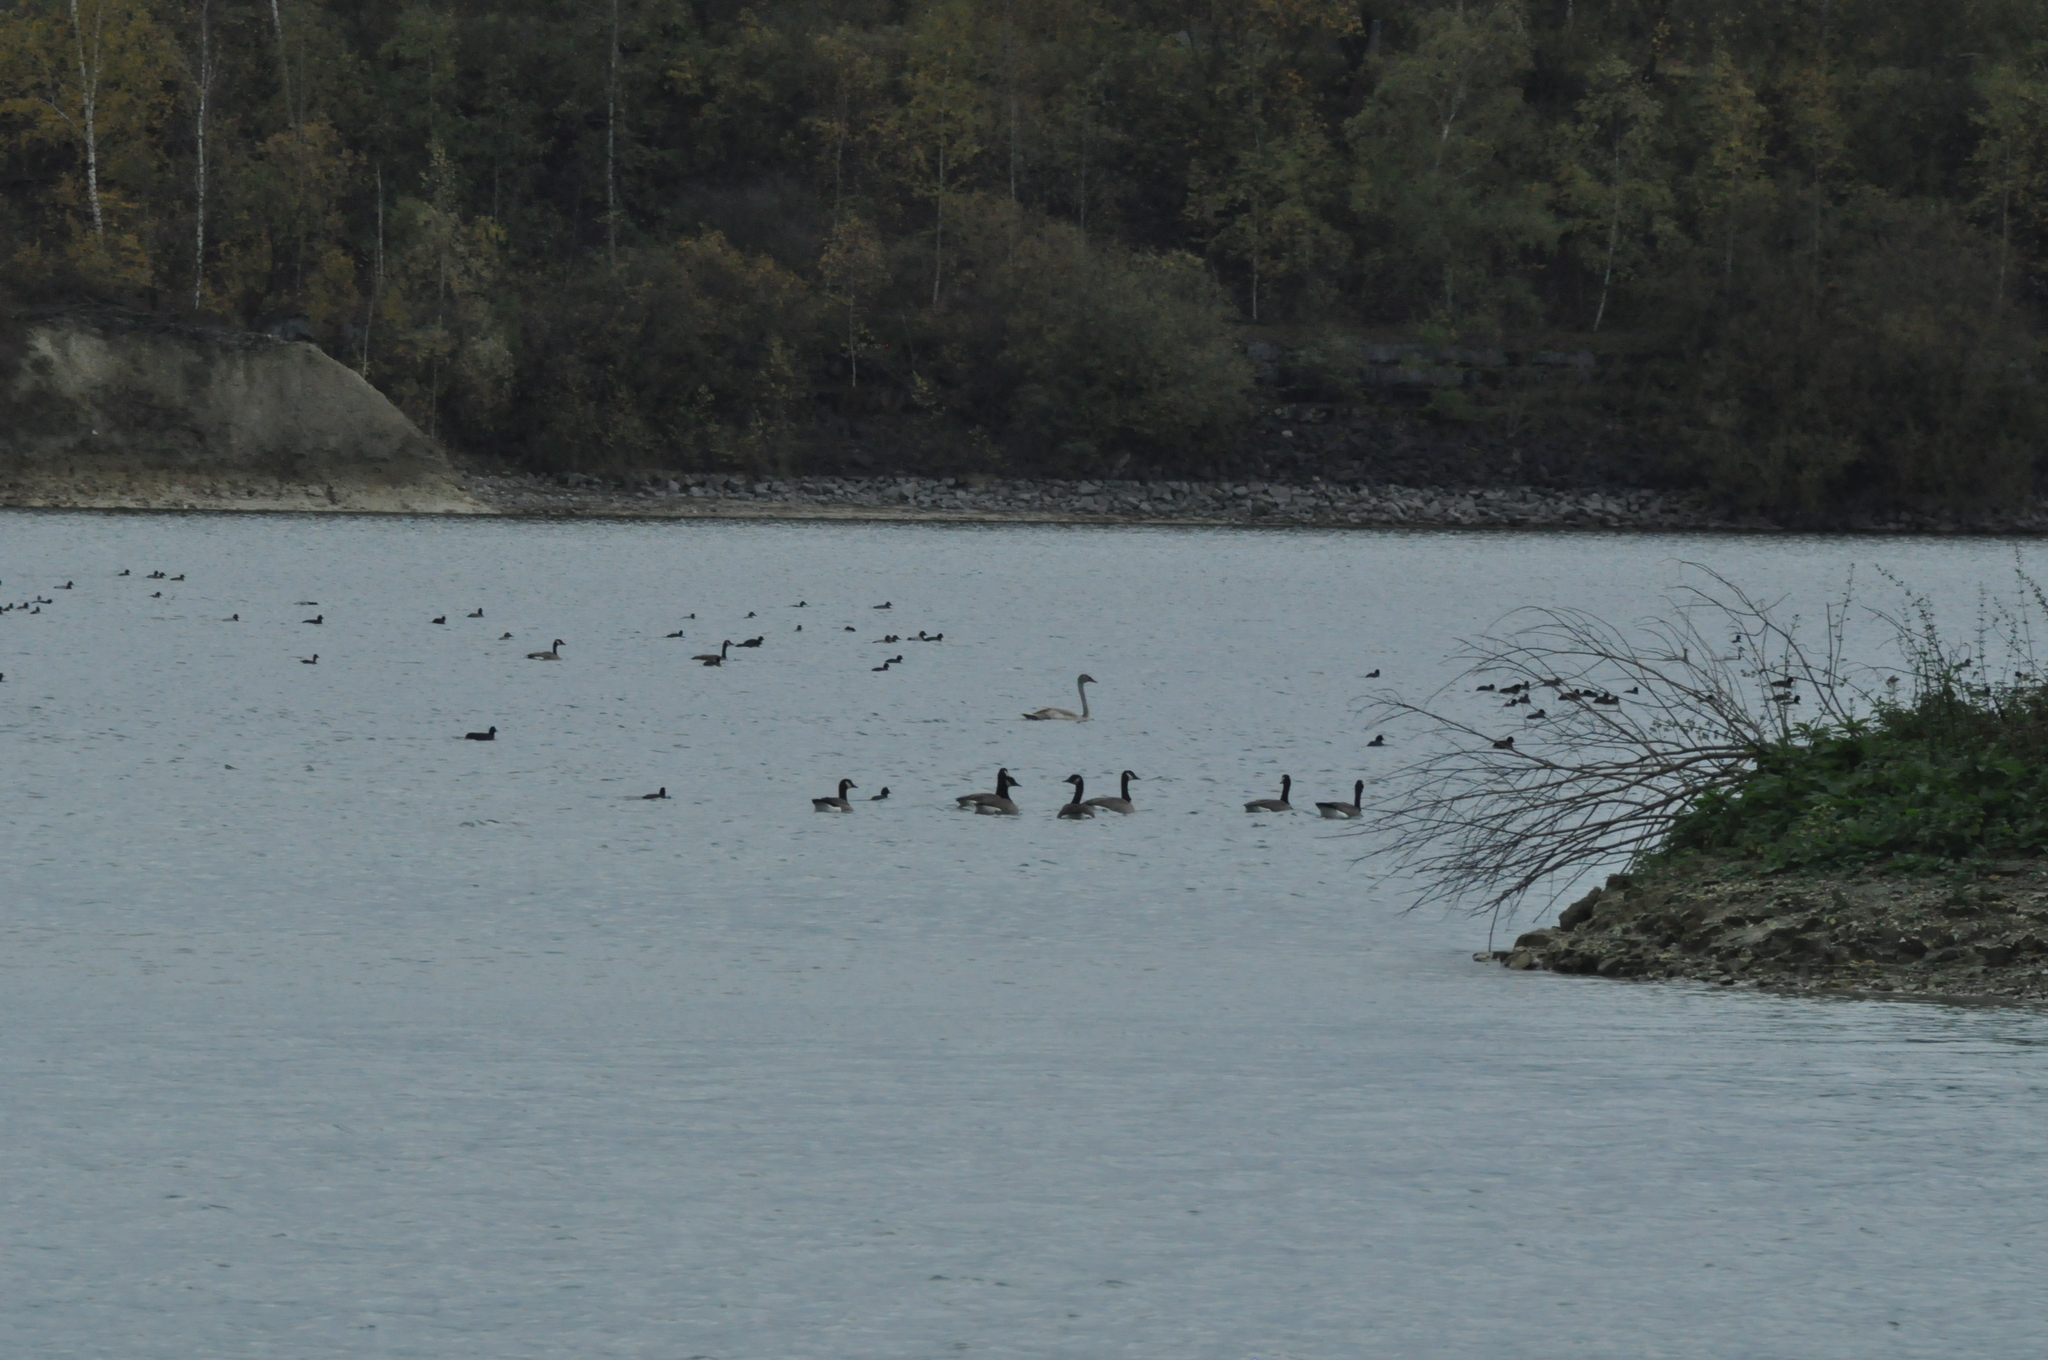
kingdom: Animalia
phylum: Chordata
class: Aves
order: Anseriformes
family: Anatidae
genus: Cygnus
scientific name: Cygnus olor
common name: Mute swan
